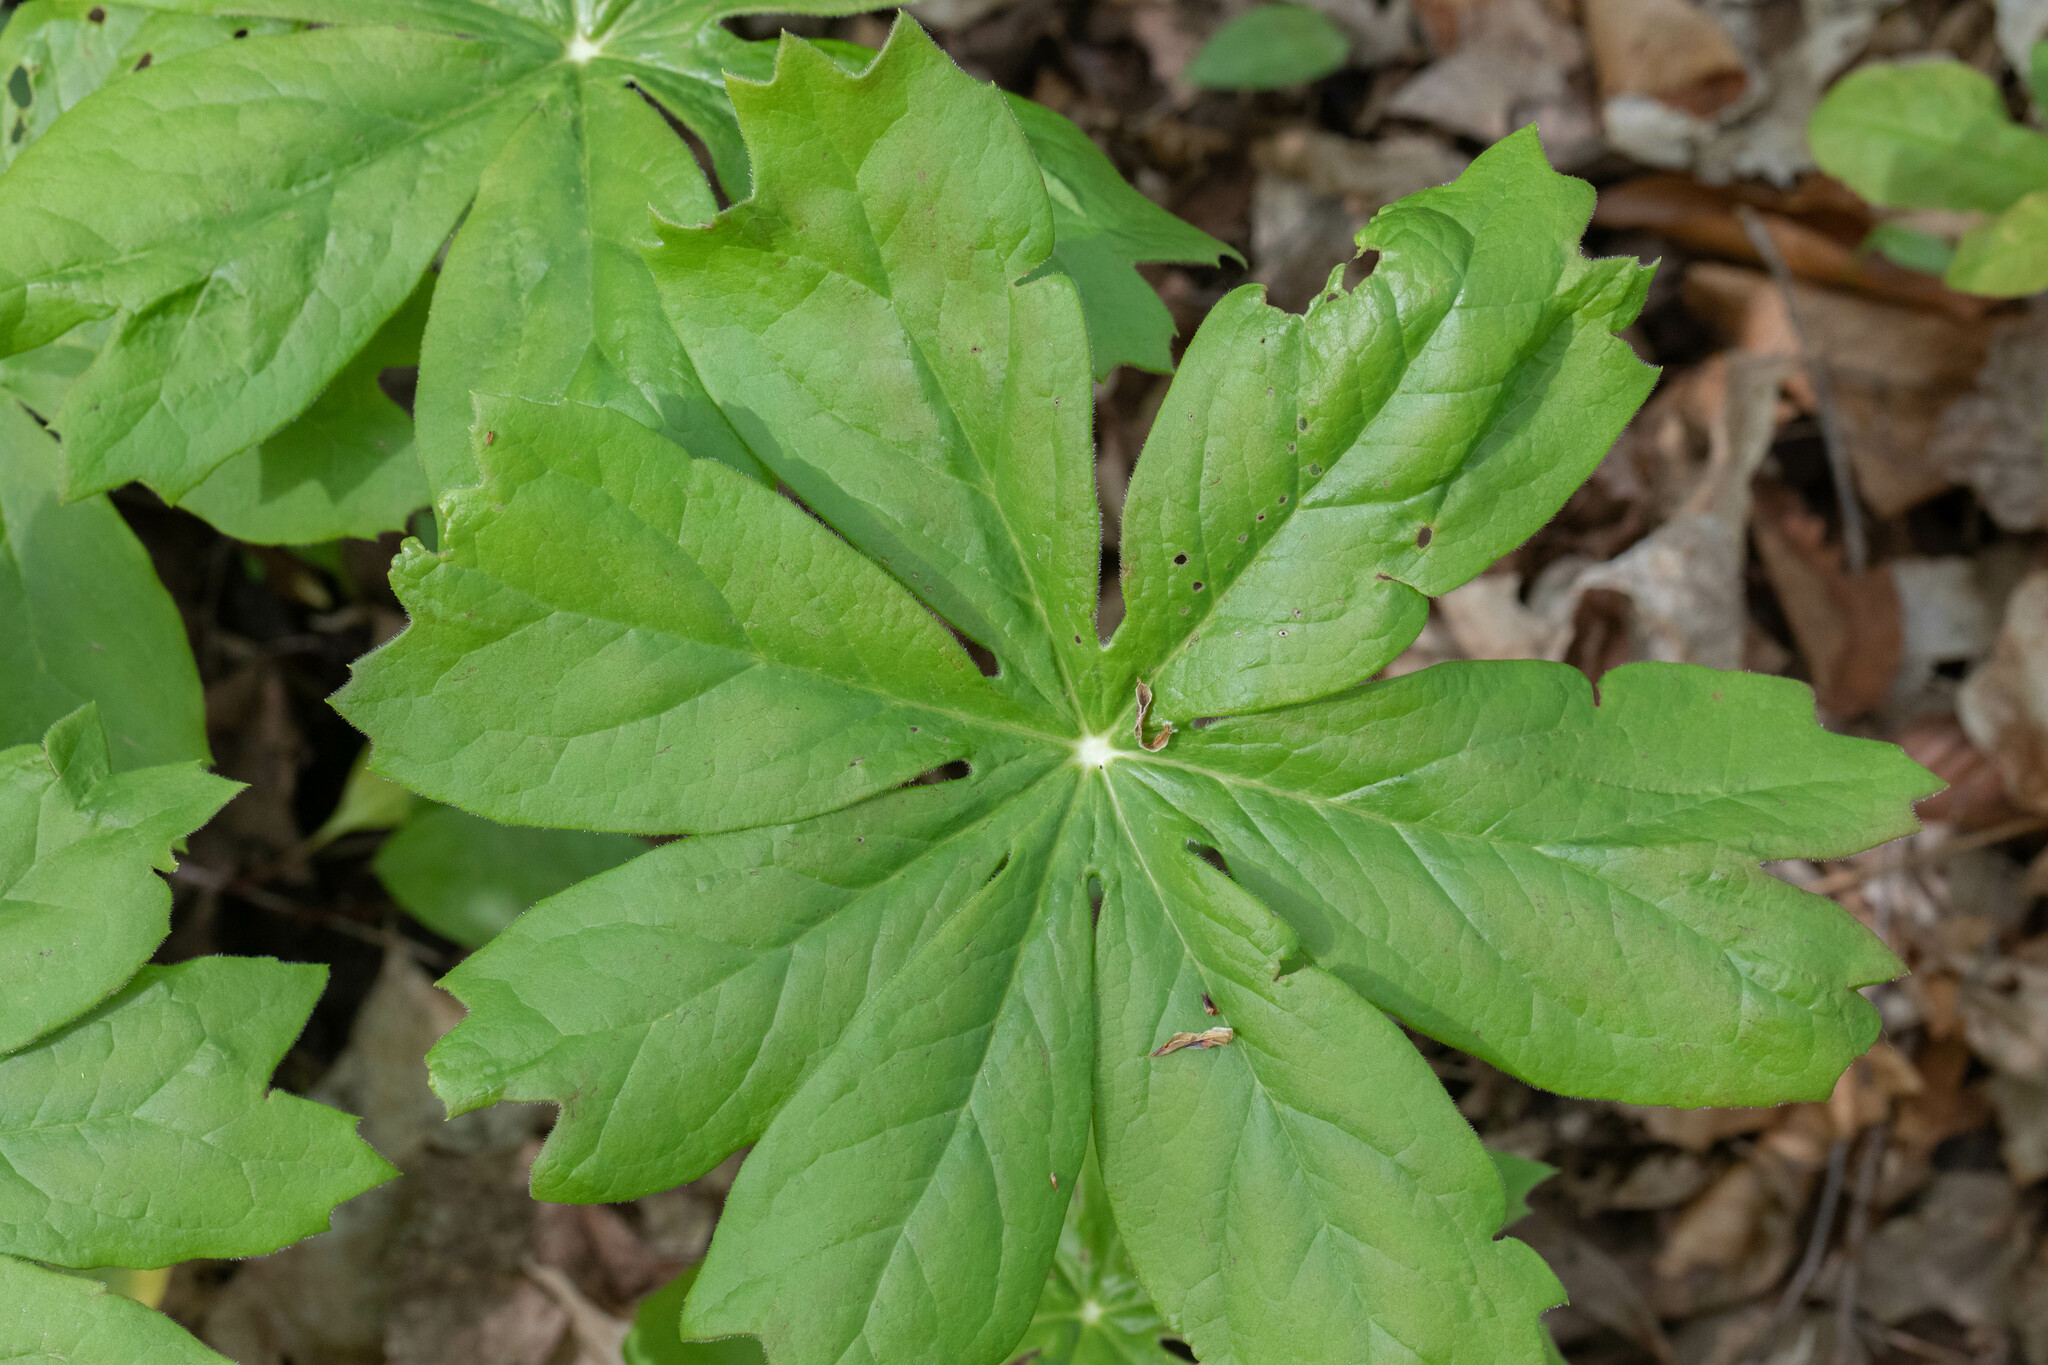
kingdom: Plantae
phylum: Tracheophyta
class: Magnoliopsida
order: Ranunculales
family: Berberidaceae
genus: Podophyllum
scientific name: Podophyllum peltatum
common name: Wild mandrake
